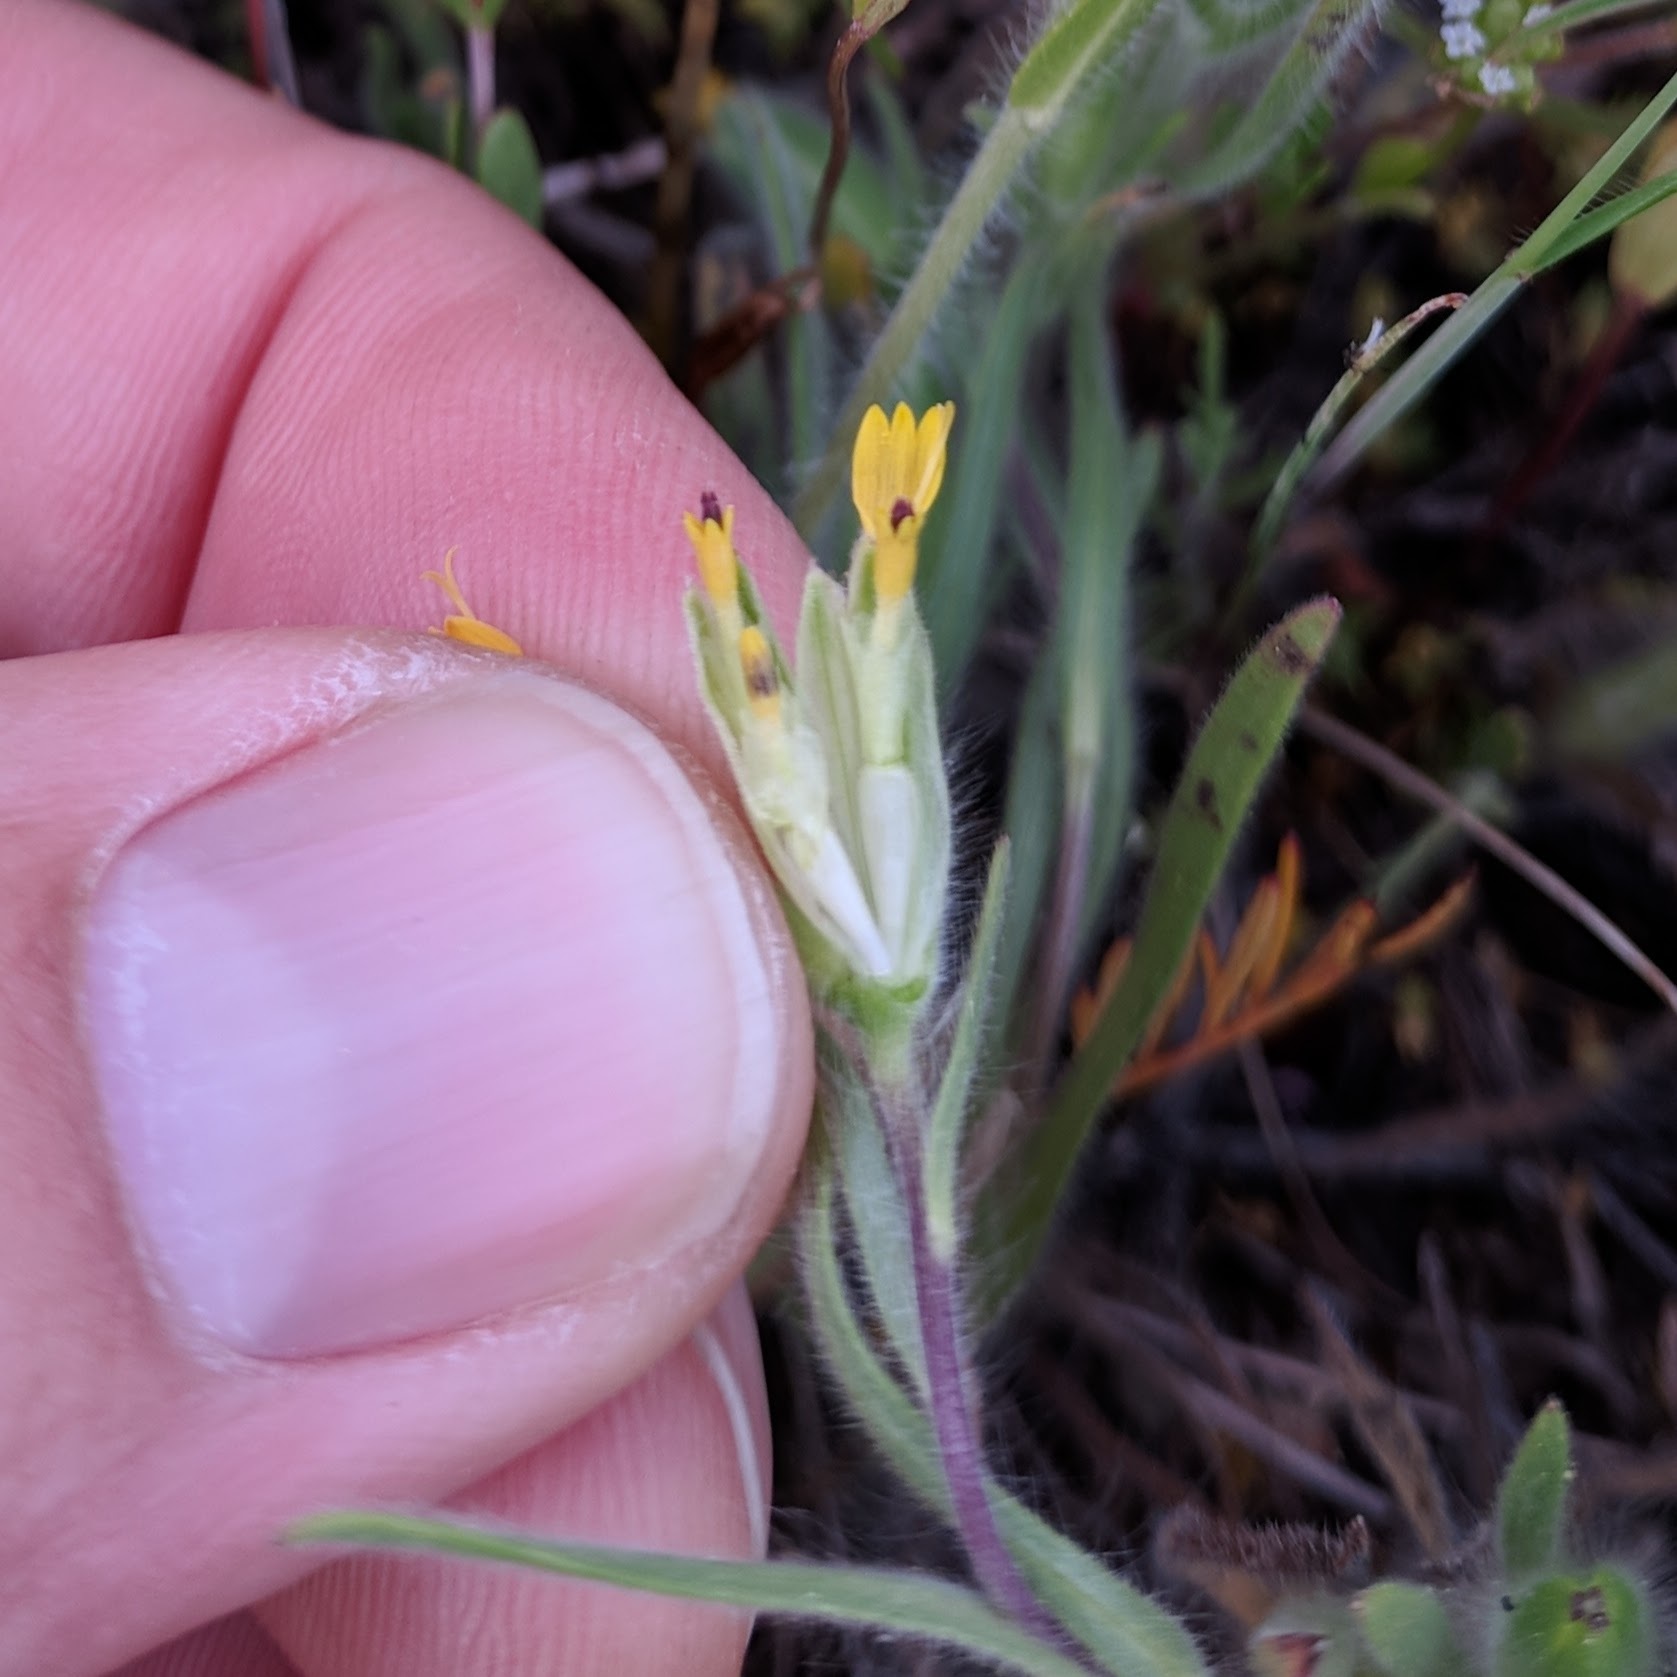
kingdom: Plantae
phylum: Tracheophyta
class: Magnoliopsida
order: Asterales
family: Asteraceae
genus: Achyrachaena
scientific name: Achyrachaena mollis
